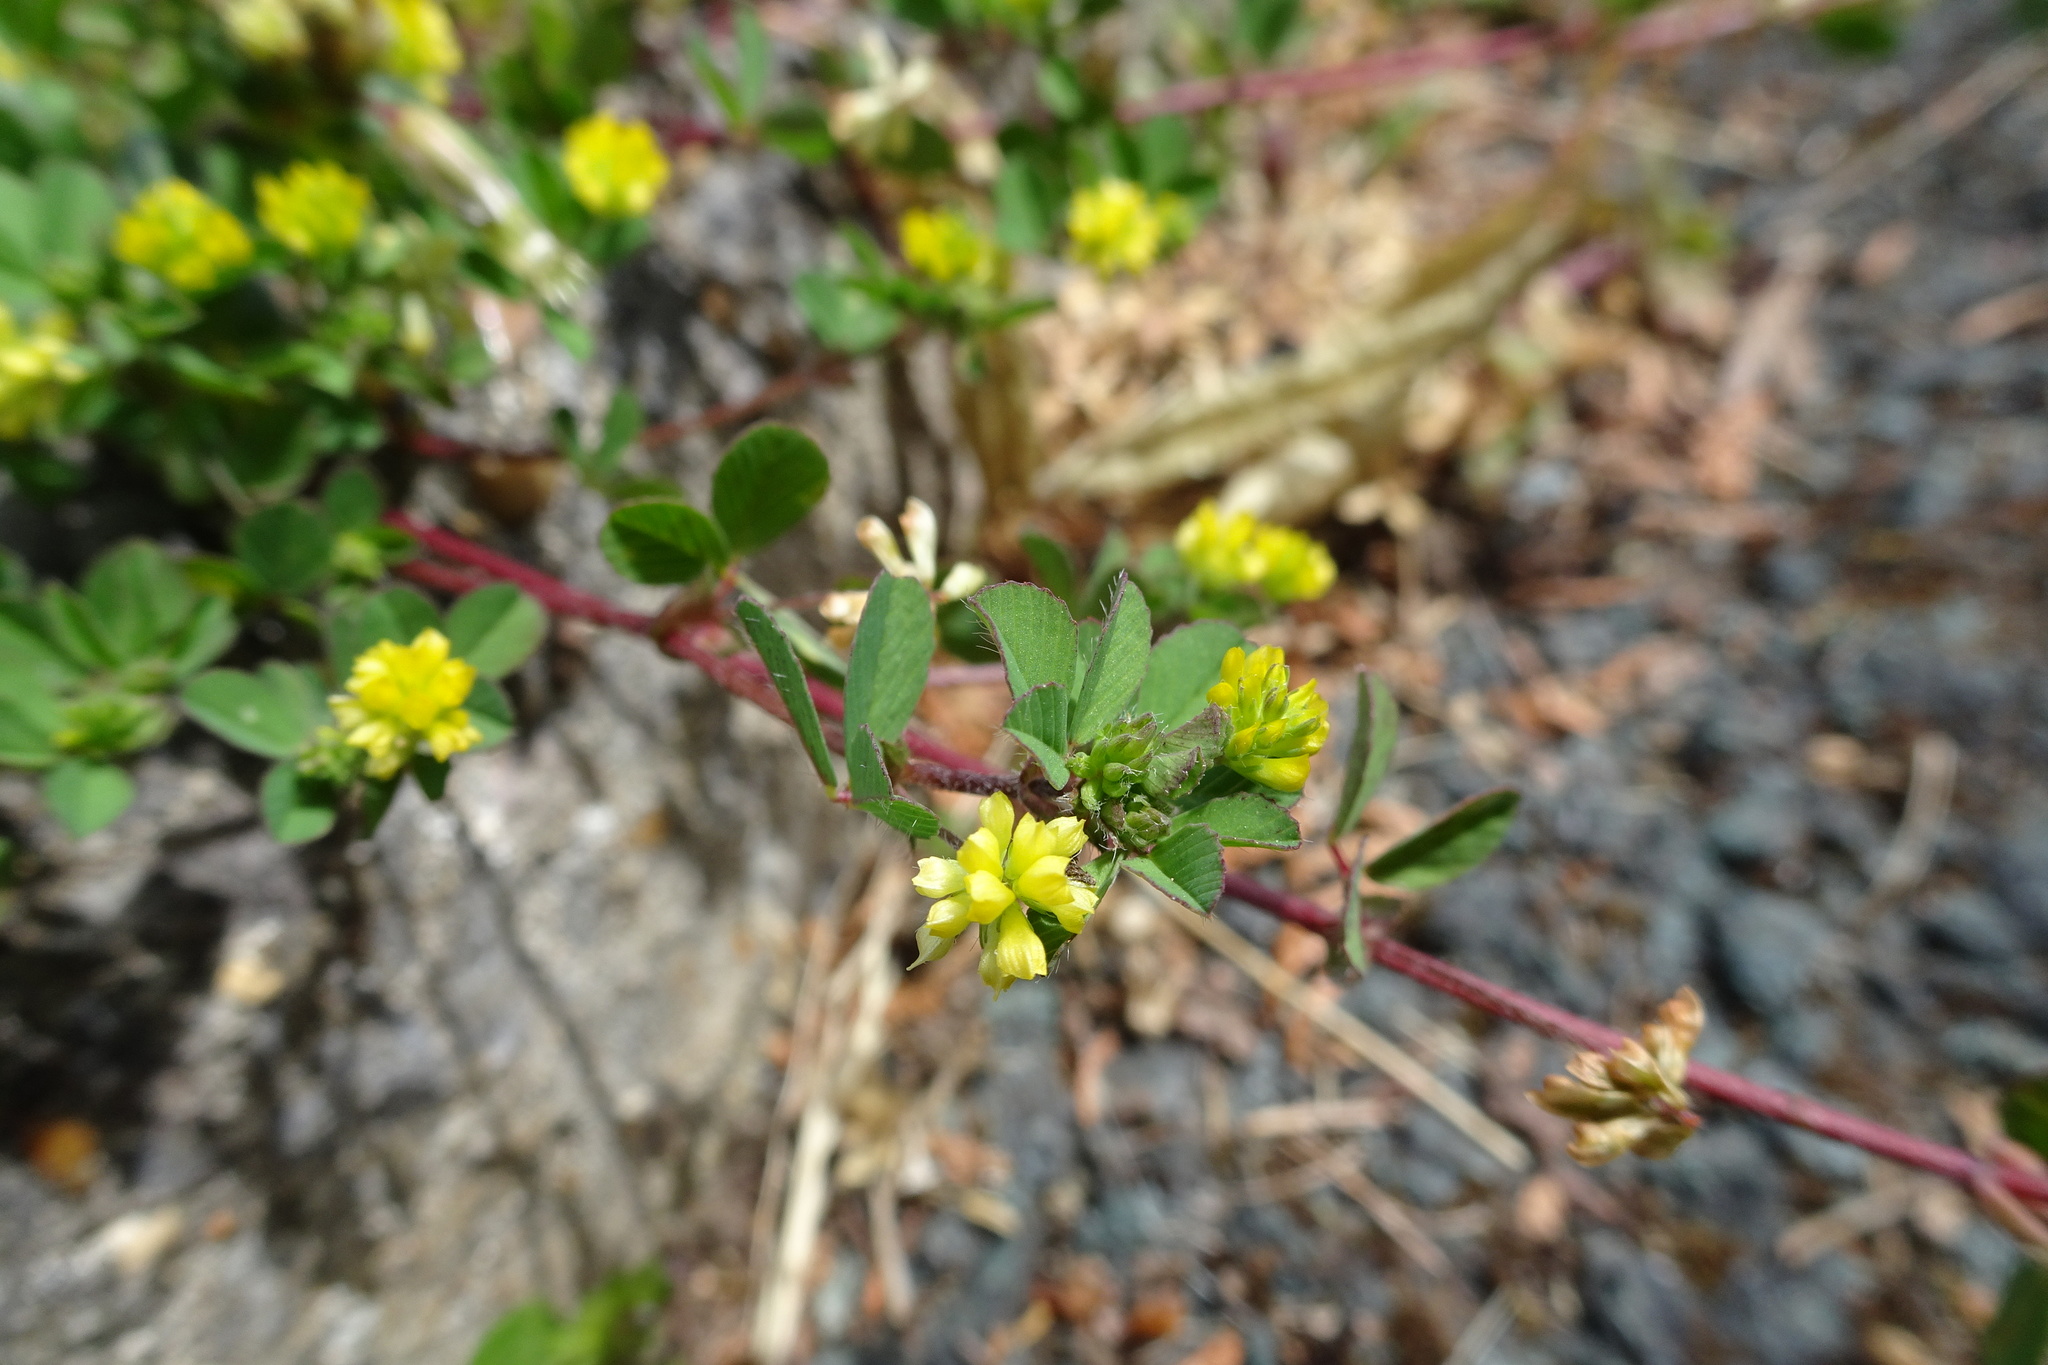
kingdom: Plantae
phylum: Tracheophyta
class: Magnoliopsida
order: Fabales
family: Fabaceae
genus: Trifolium
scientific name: Trifolium dubium
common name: Suckling clover
